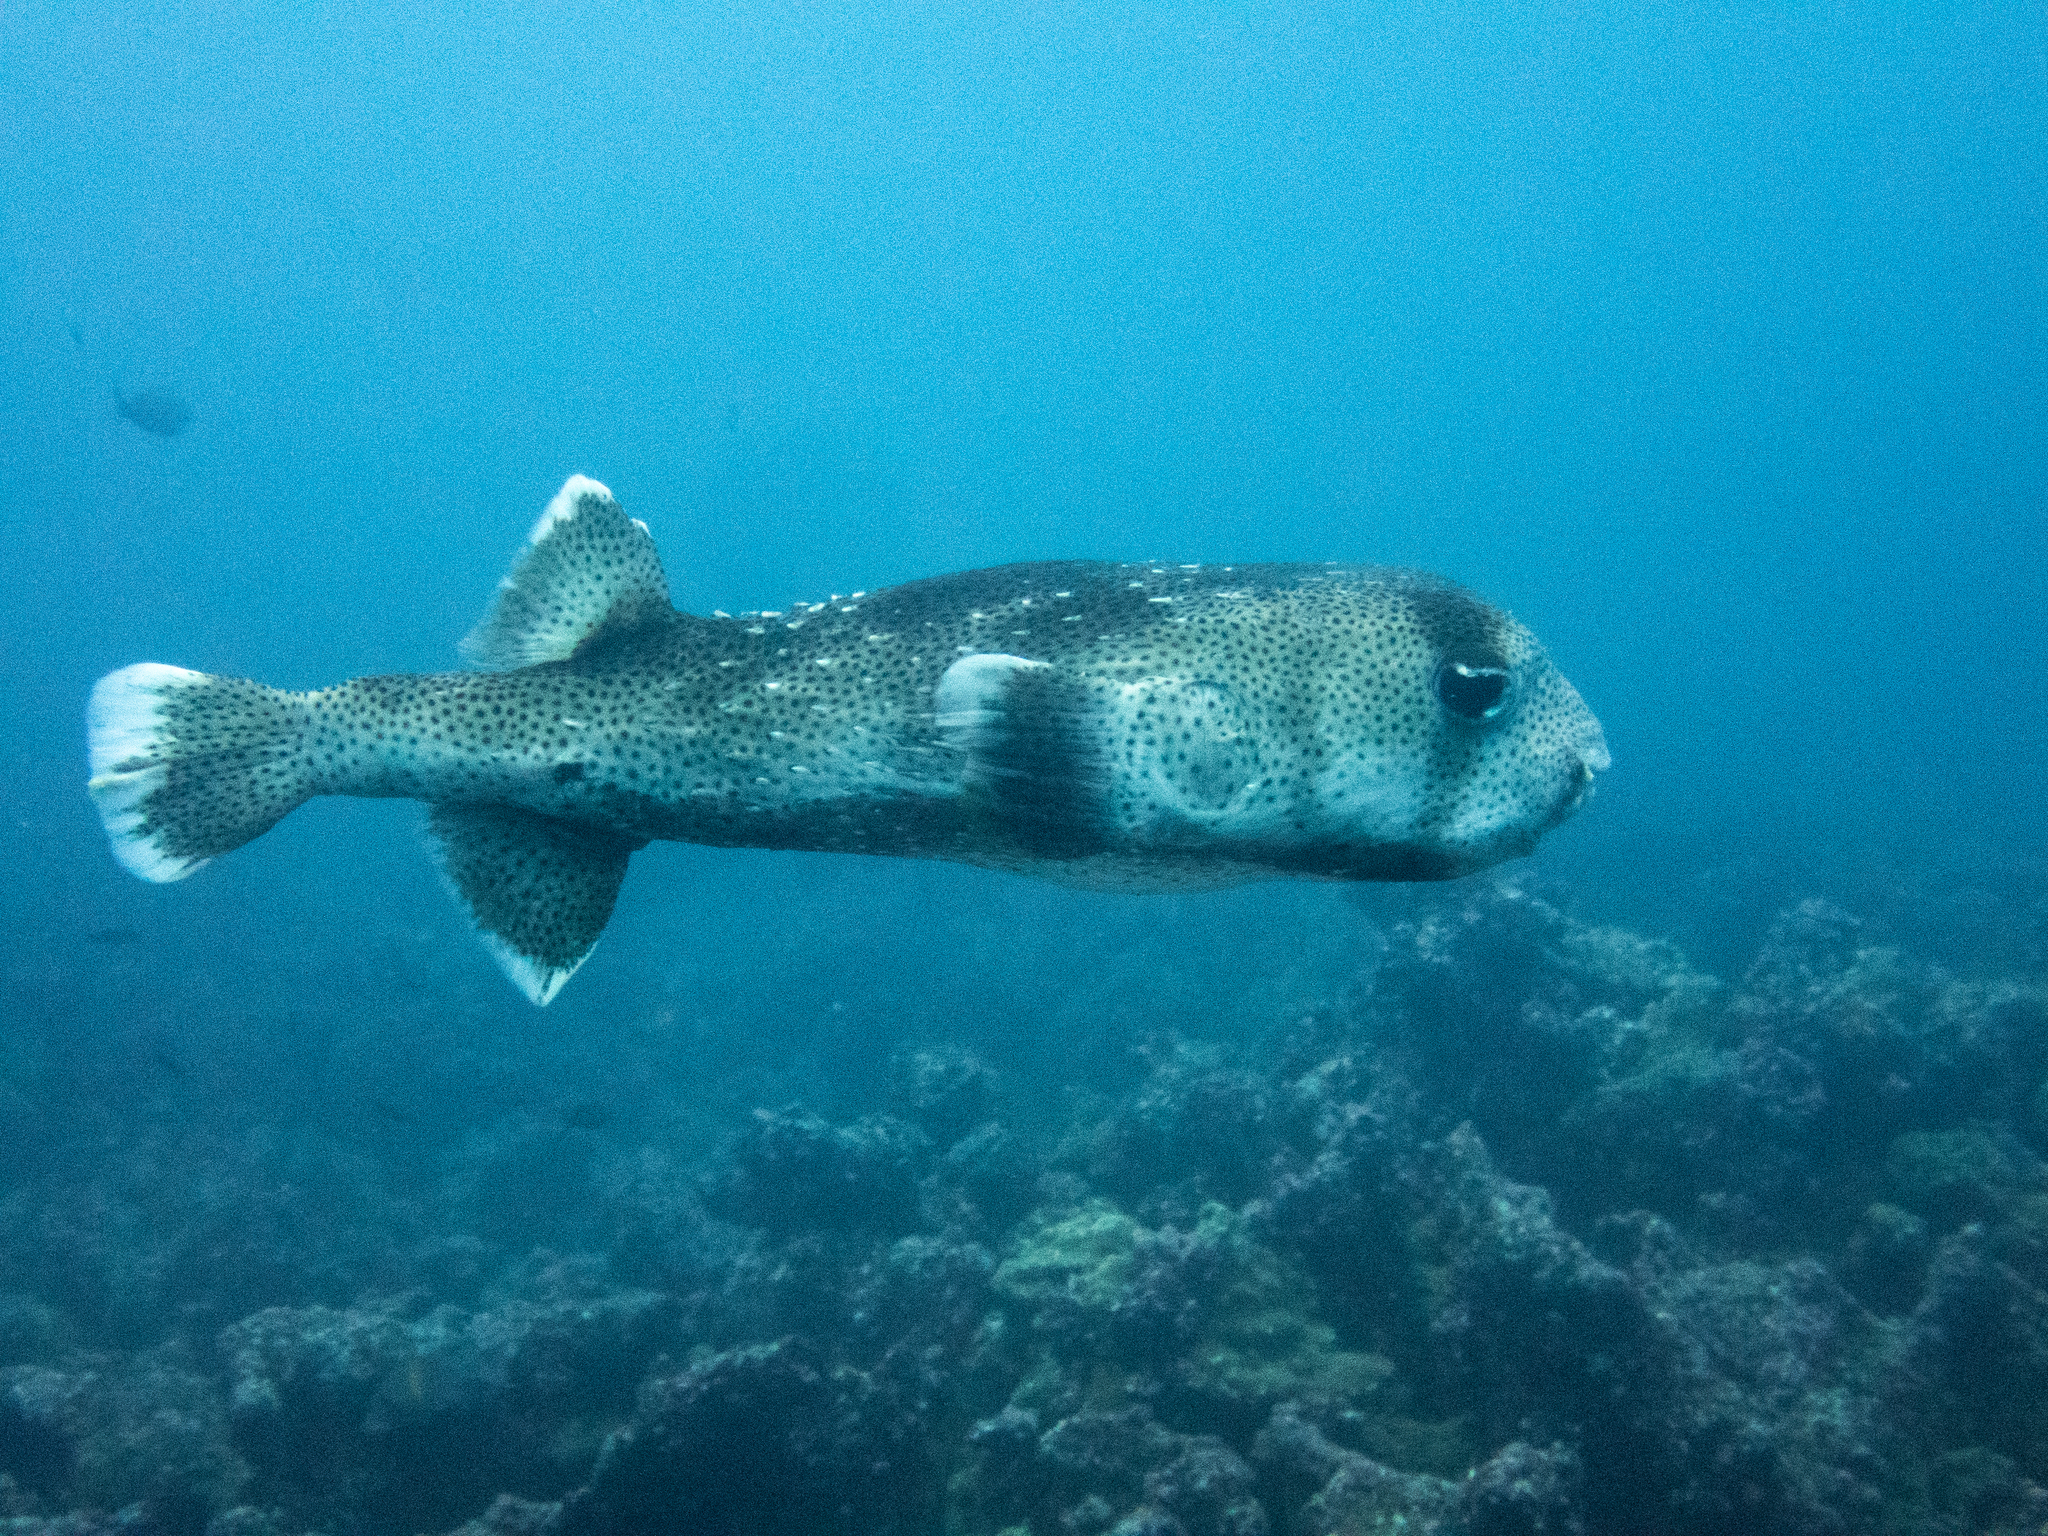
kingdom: Animalia
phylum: Chordata
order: Tetraodontiformes
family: Diodontidae
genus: Diodon
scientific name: Diodon hystrix
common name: Giant porcupinefish
